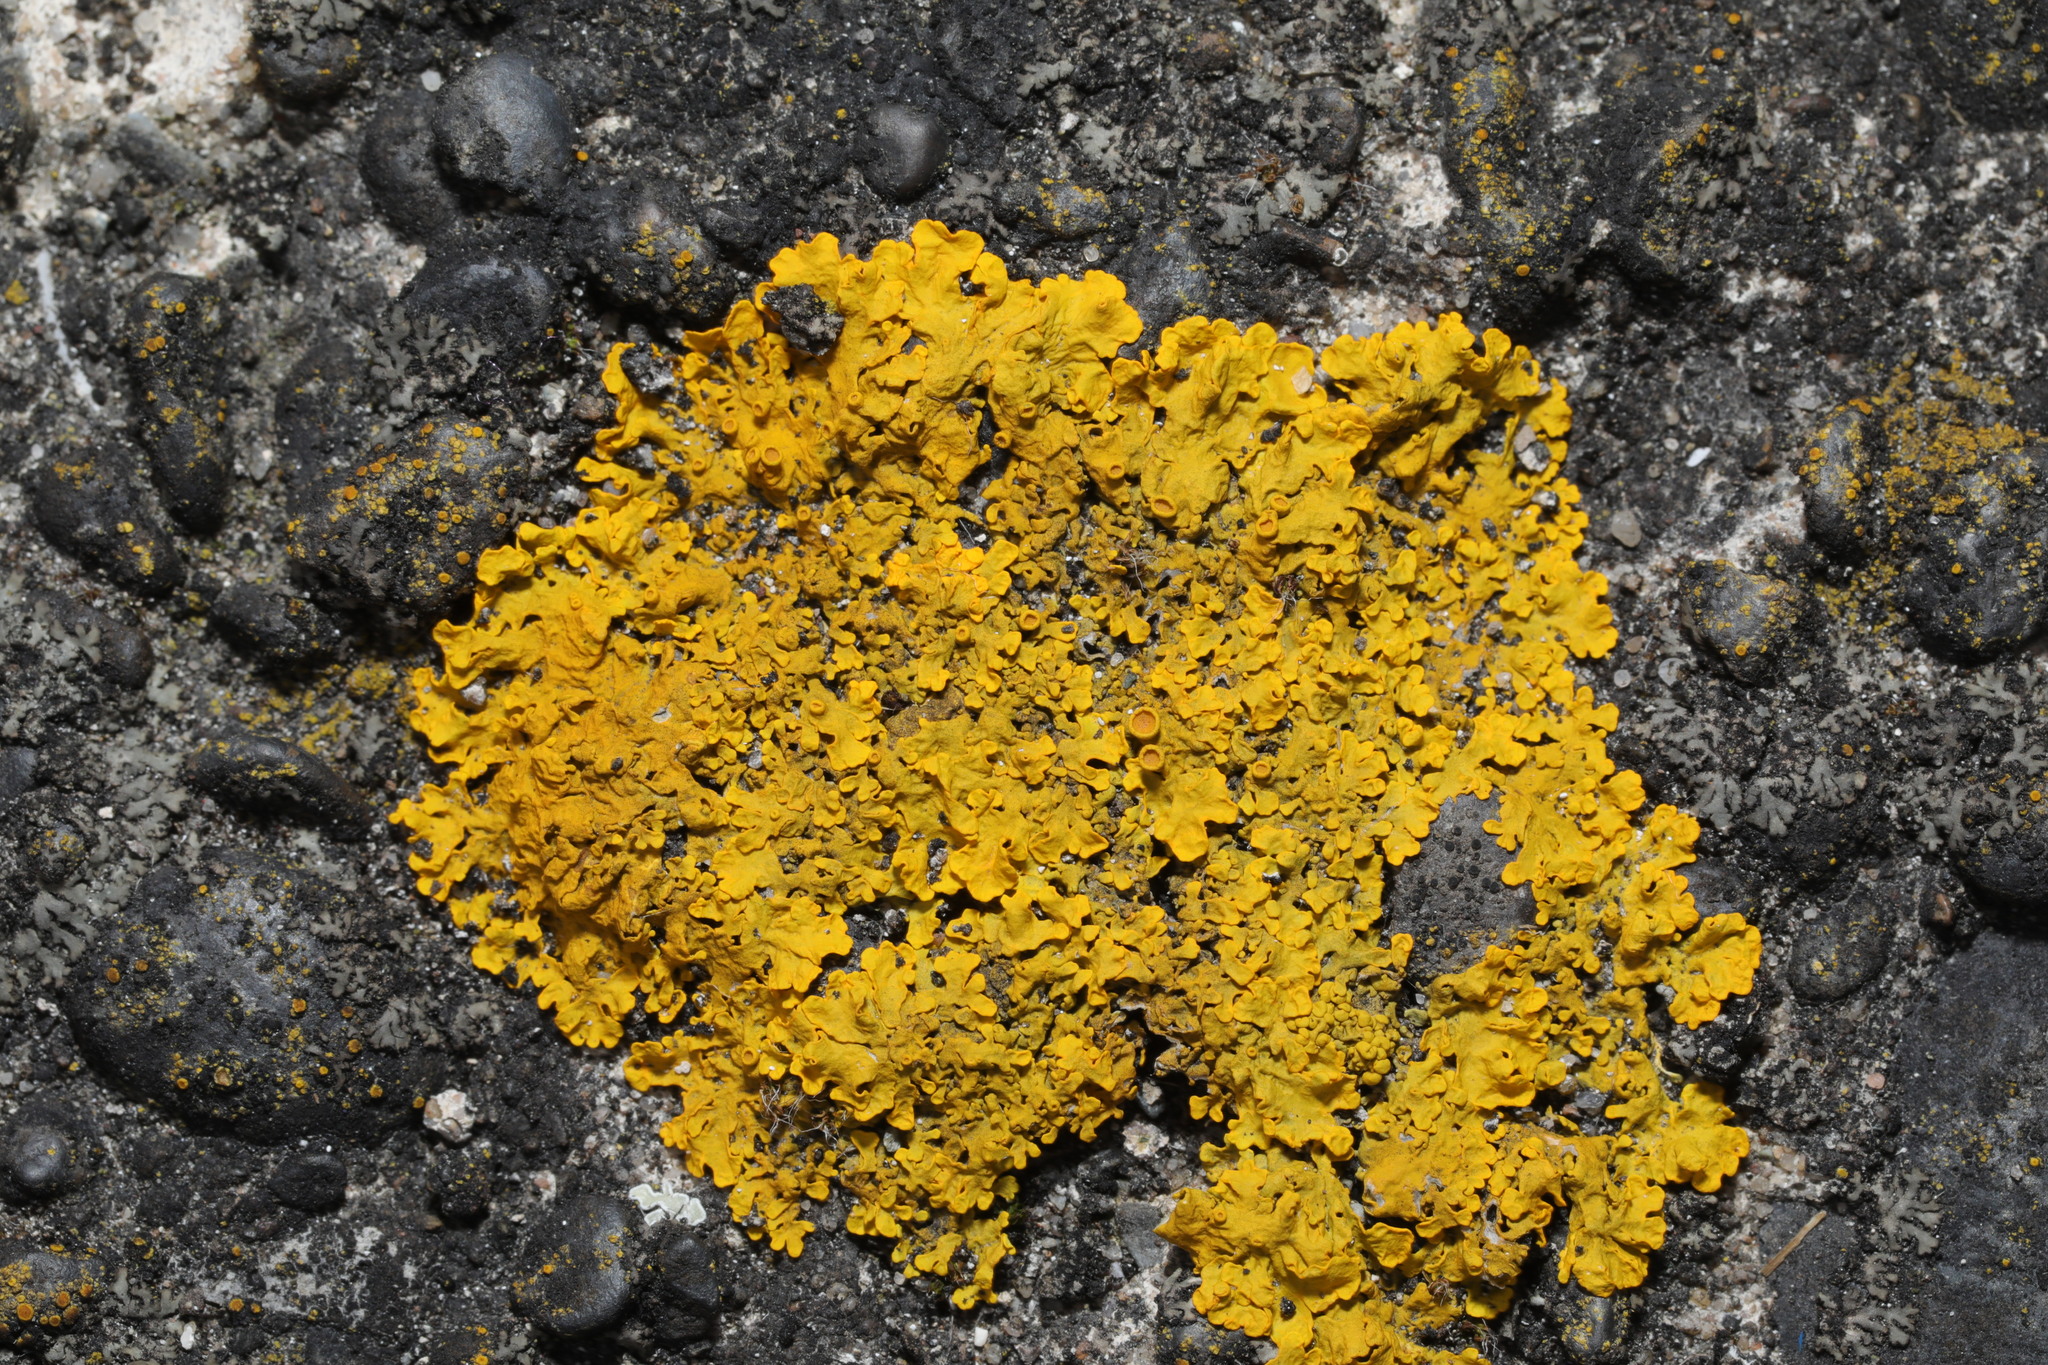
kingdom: Fungi
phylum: Ascomycota
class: Lecanoromycetes
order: Teloschistales
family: Teloschistaceae
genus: Xanthoria
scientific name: Xanthoria parietina
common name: Common orange lichen
